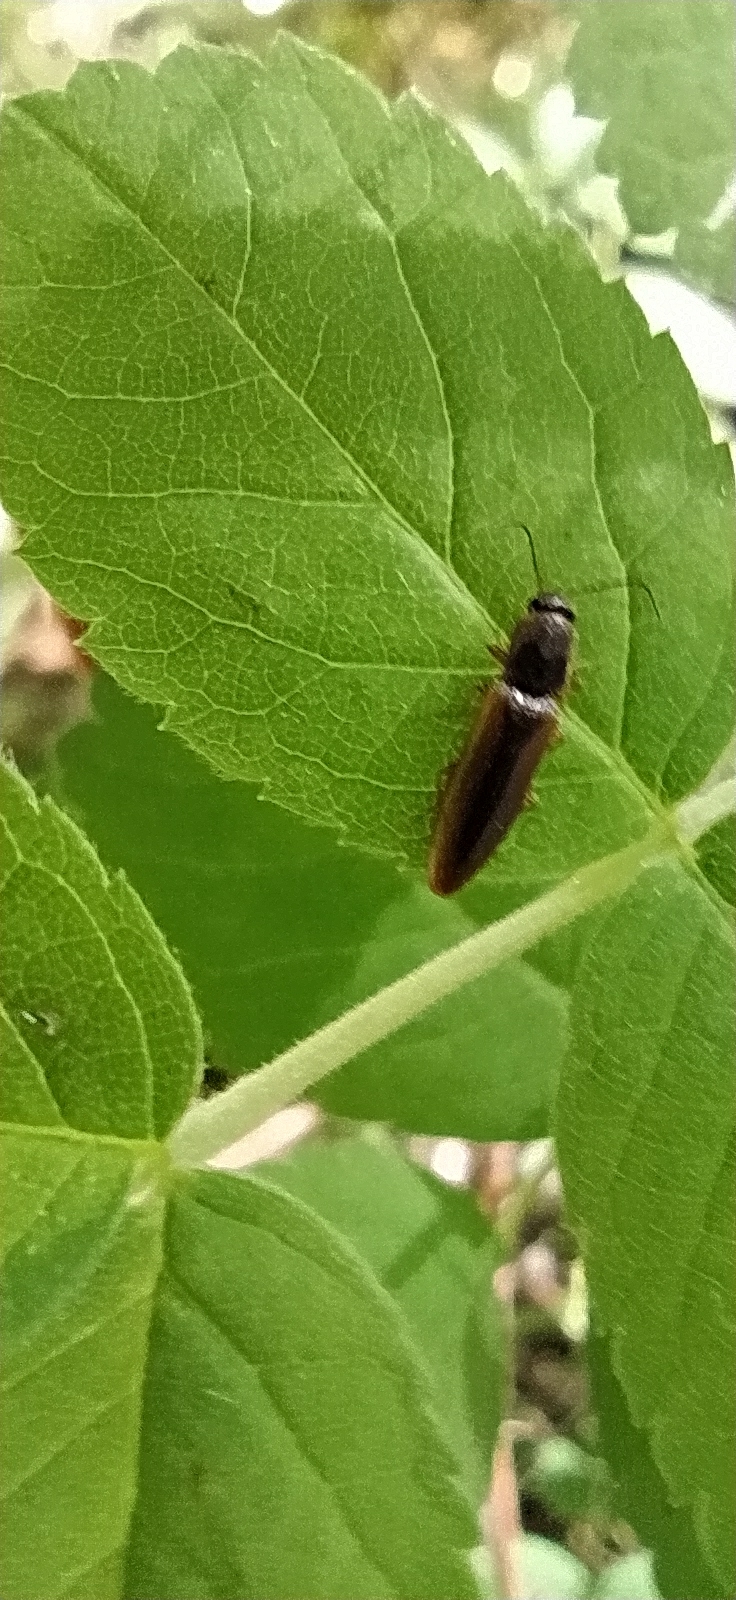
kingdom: Animalia
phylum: Arthropoda
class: Insecta
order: Coleoptera
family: Elateridae
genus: Dalopius
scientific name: Dalopius marginatus
